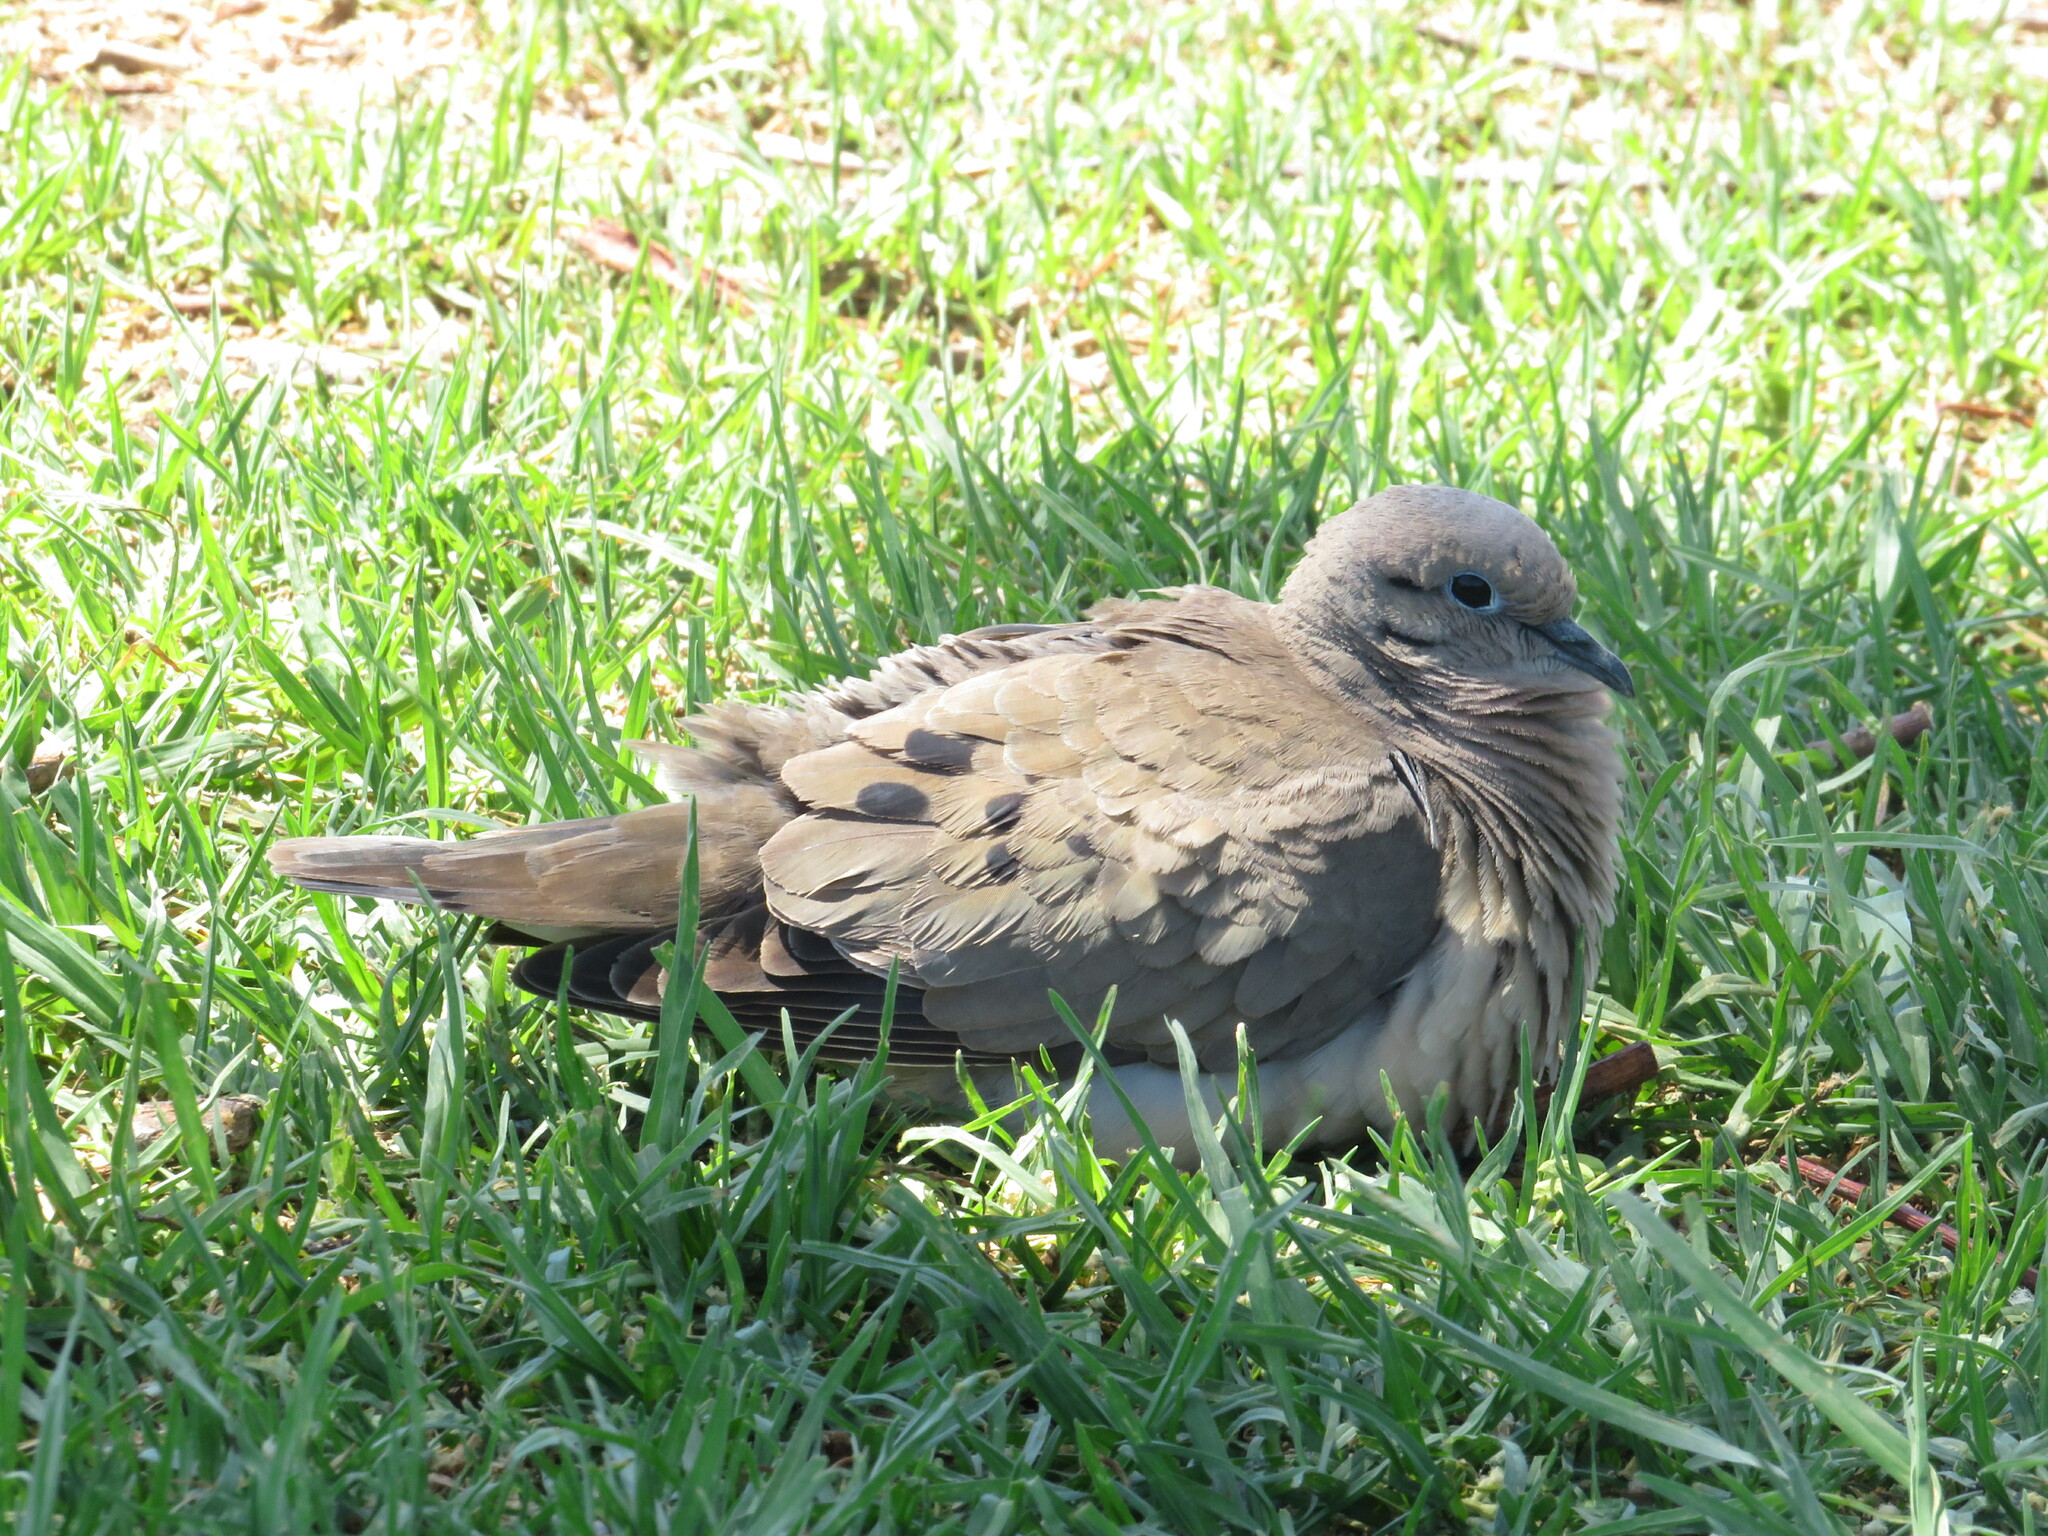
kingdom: Animalia
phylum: Chordata
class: Aves
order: Columbiformes
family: Columbidae
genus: Zenaida
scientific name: Zenaida auriculata
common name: Eared dove
